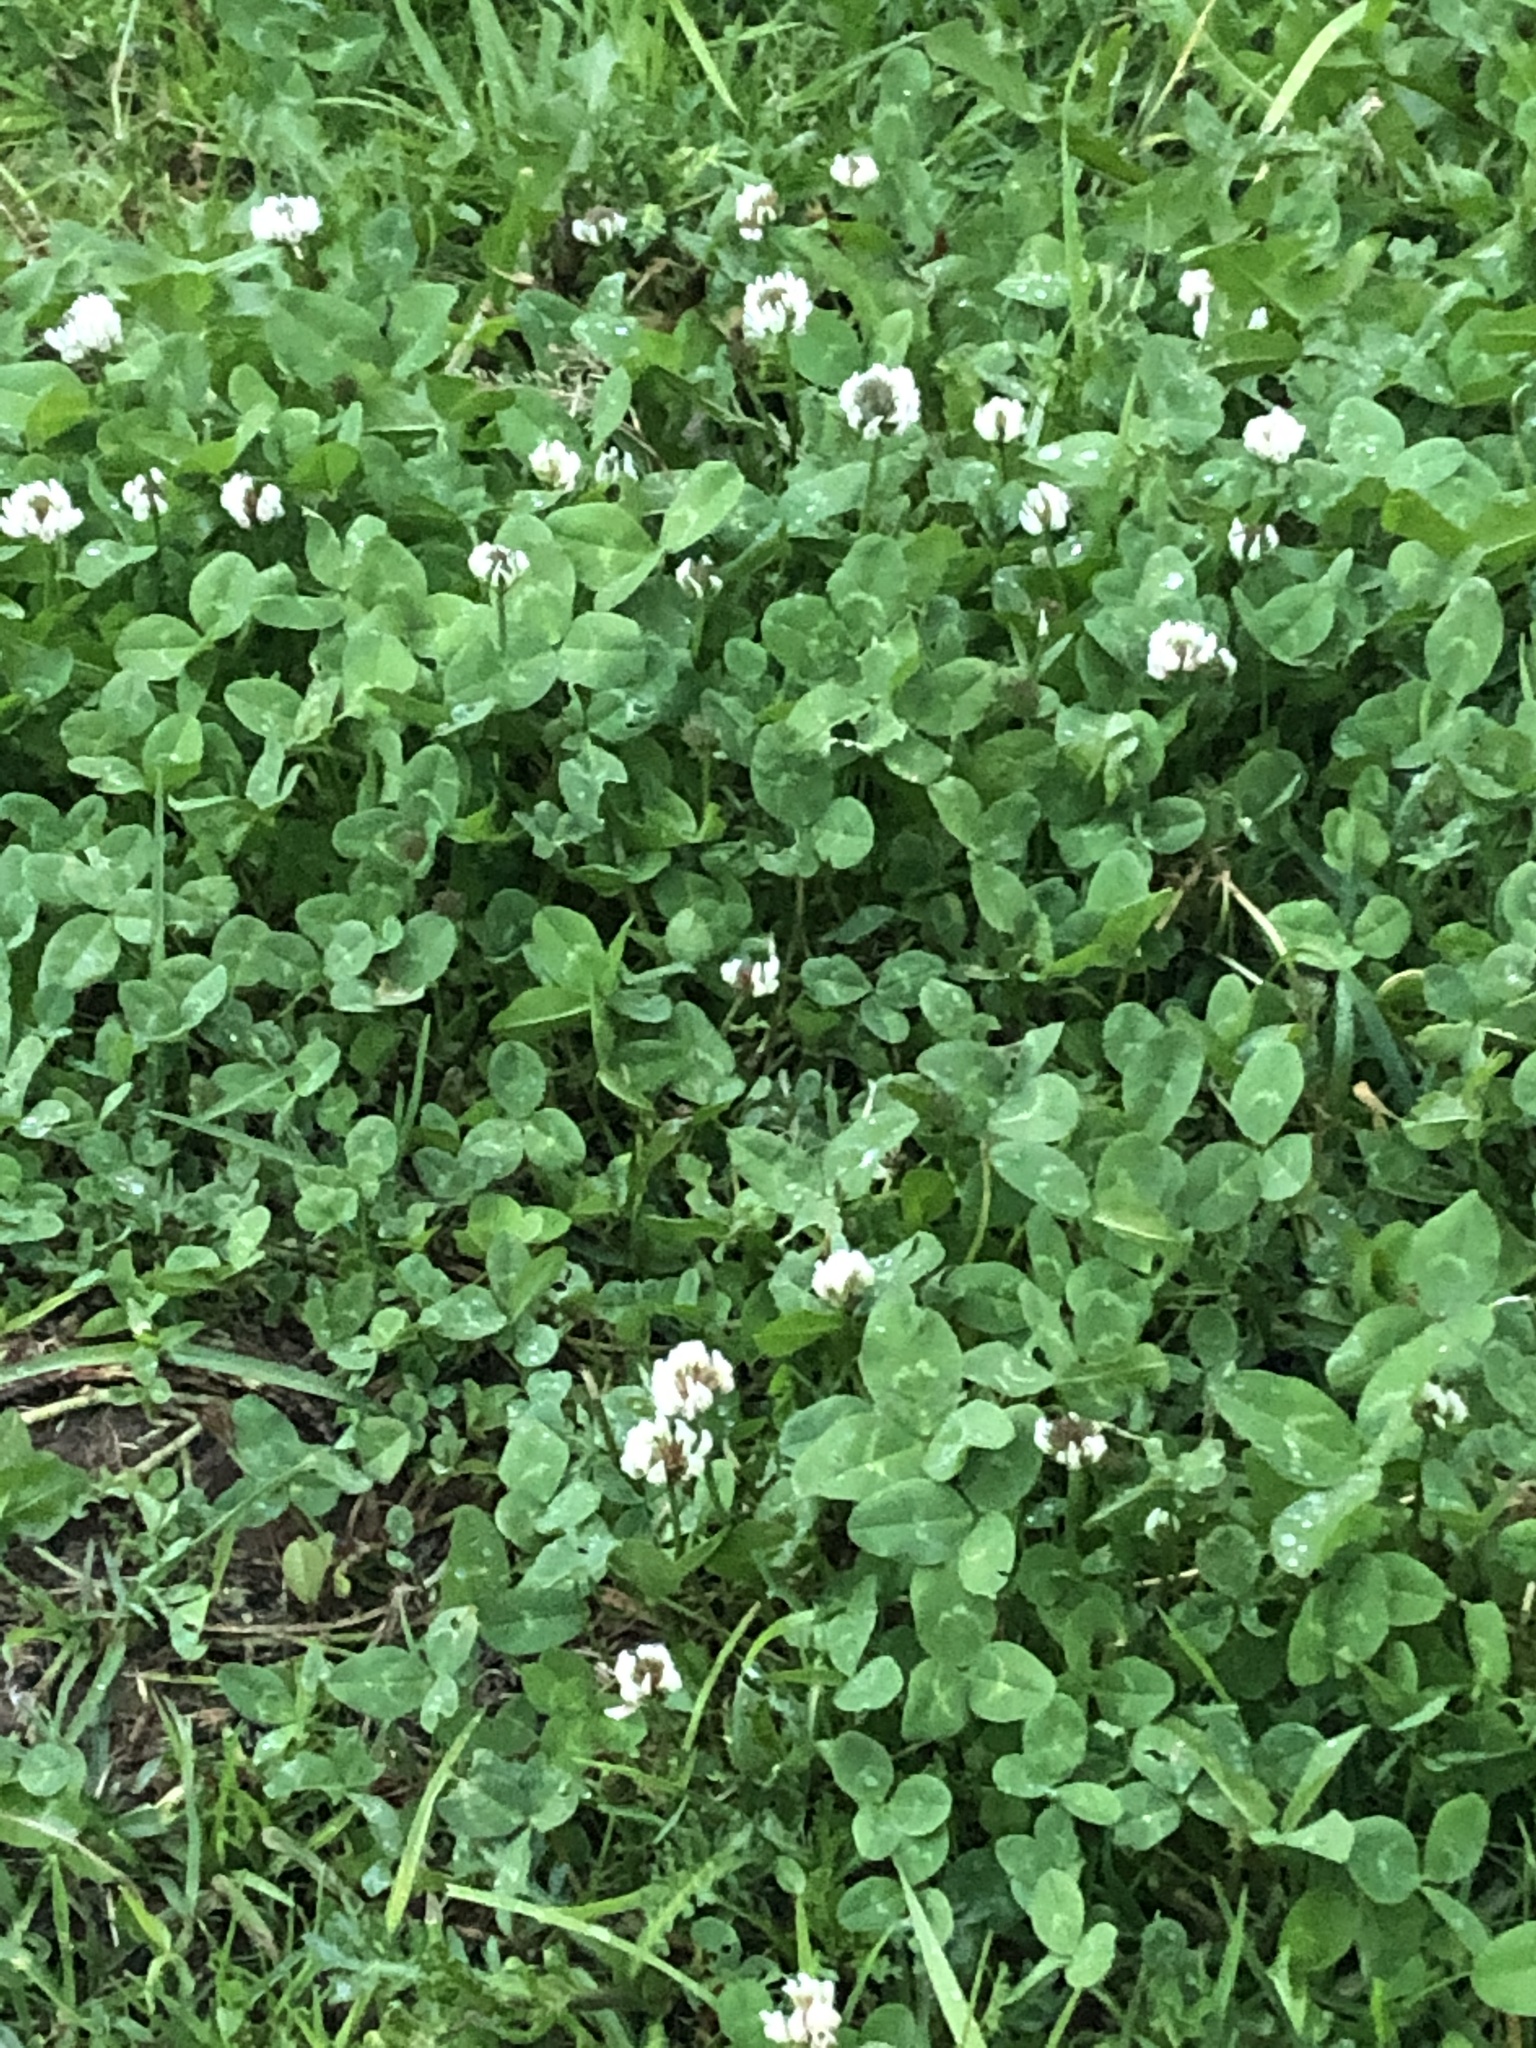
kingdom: Plantae
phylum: Tracheophyta
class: Magnoliopsida
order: Fabales
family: Fabaceae
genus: Trifolium
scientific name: Trifolium repens
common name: White clover
